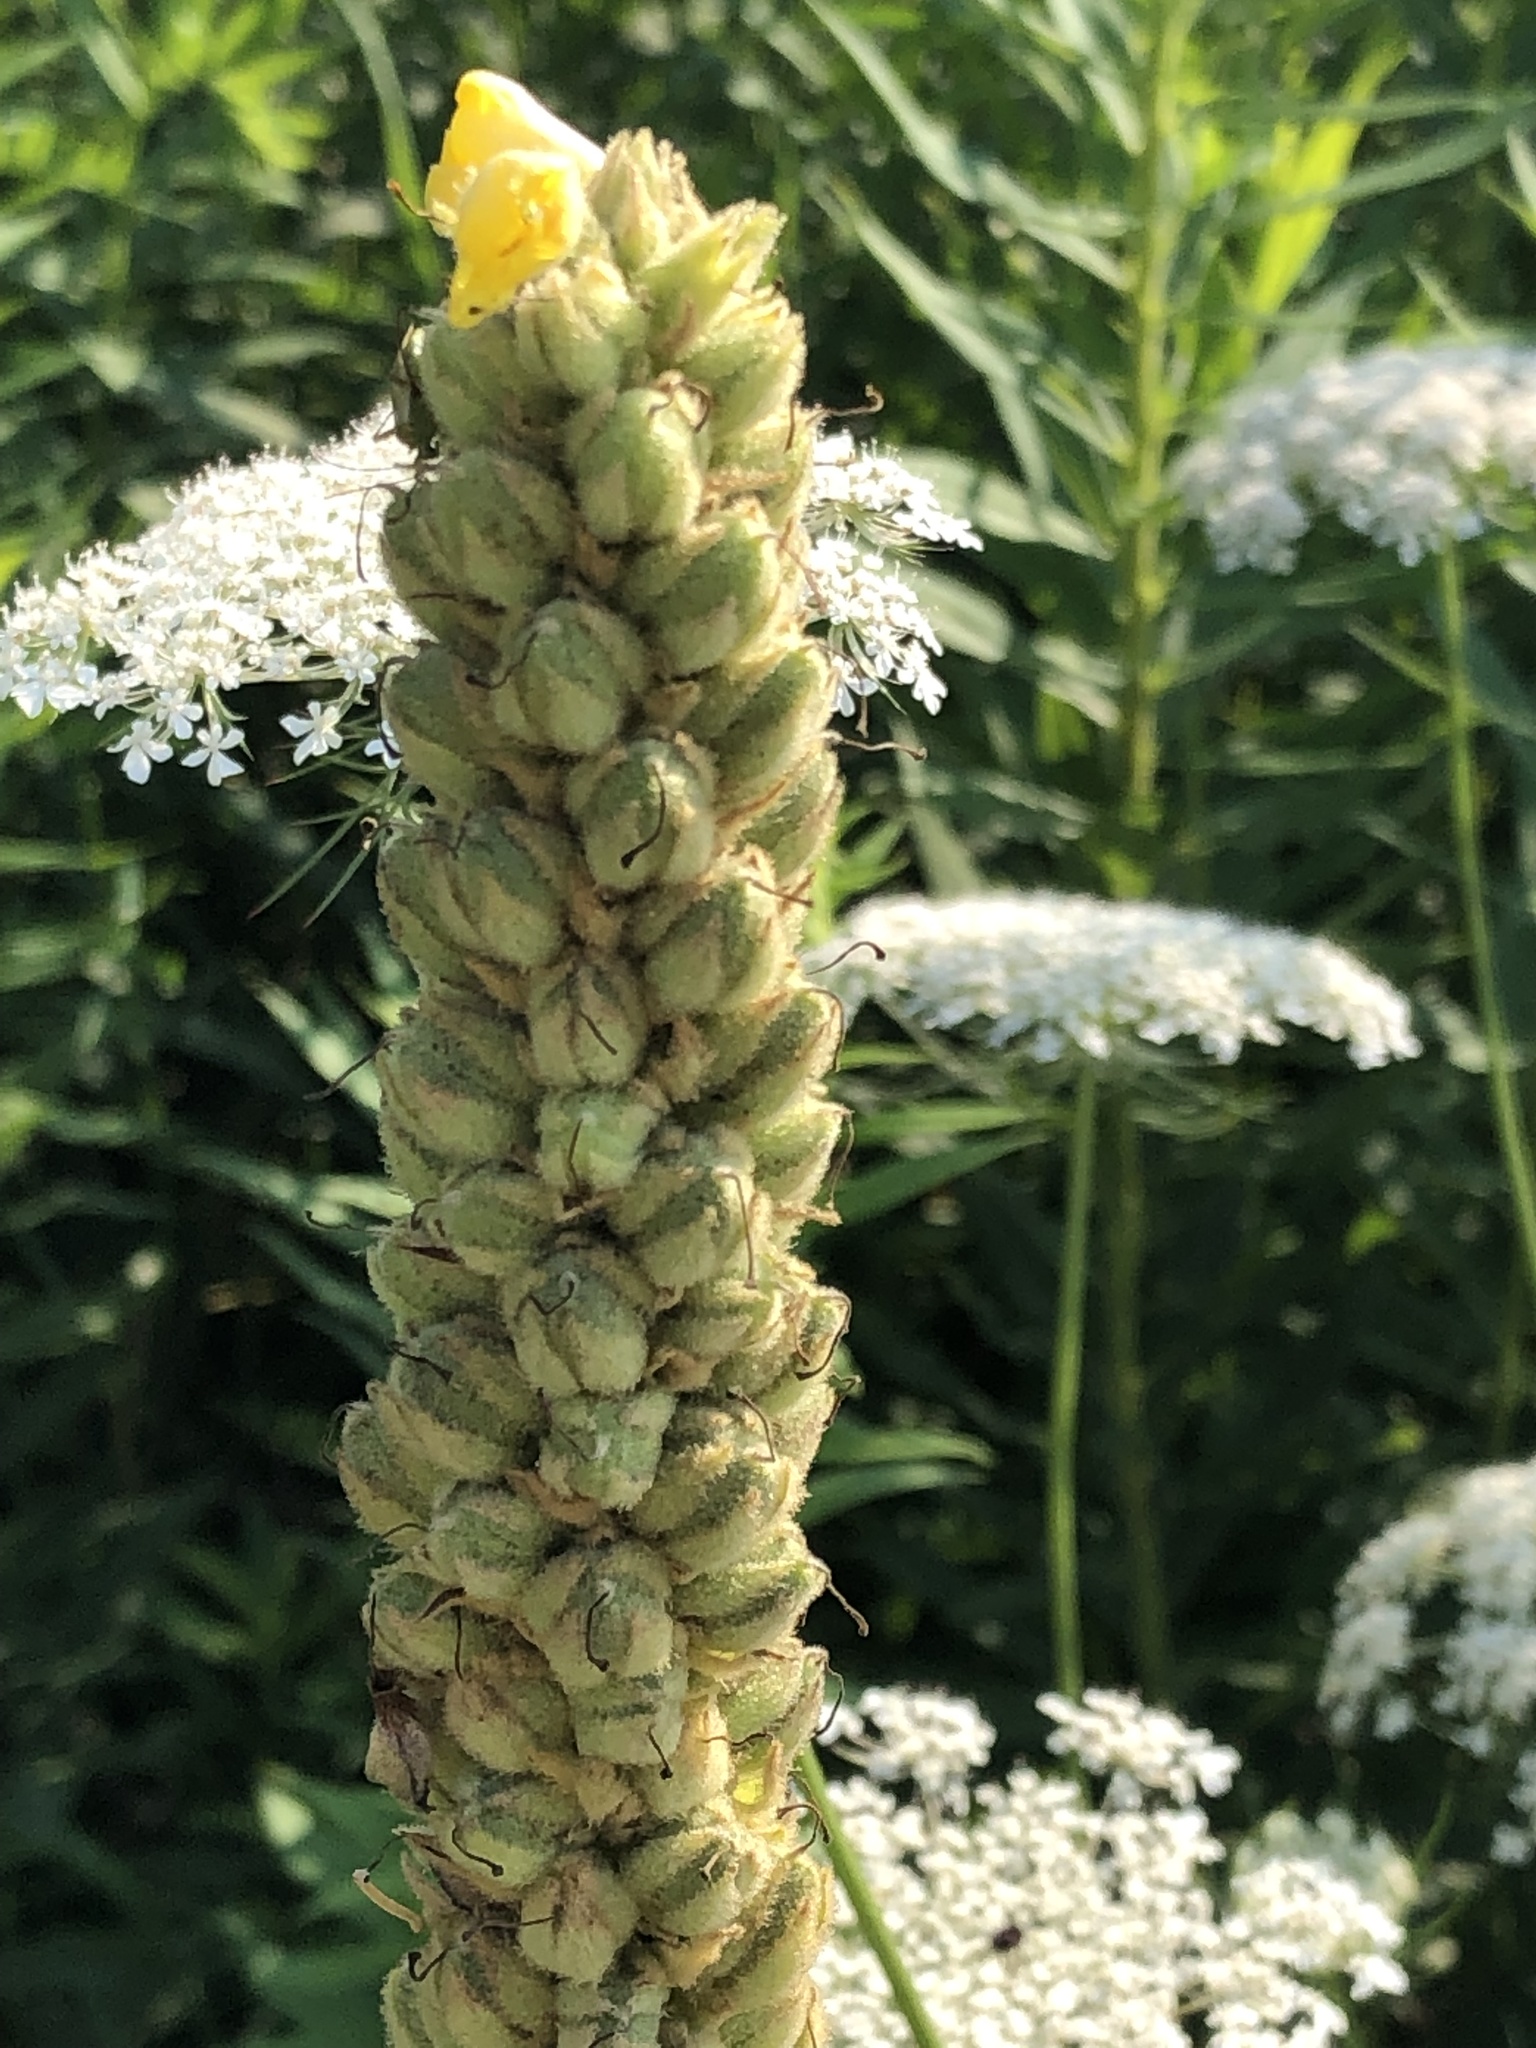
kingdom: Plantae
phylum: Tracheophyta
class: Magnoliopsida
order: Lamiales
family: Scrophulariaceae
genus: Verbascum
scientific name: Verbascum thapsus
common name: Common mullein
